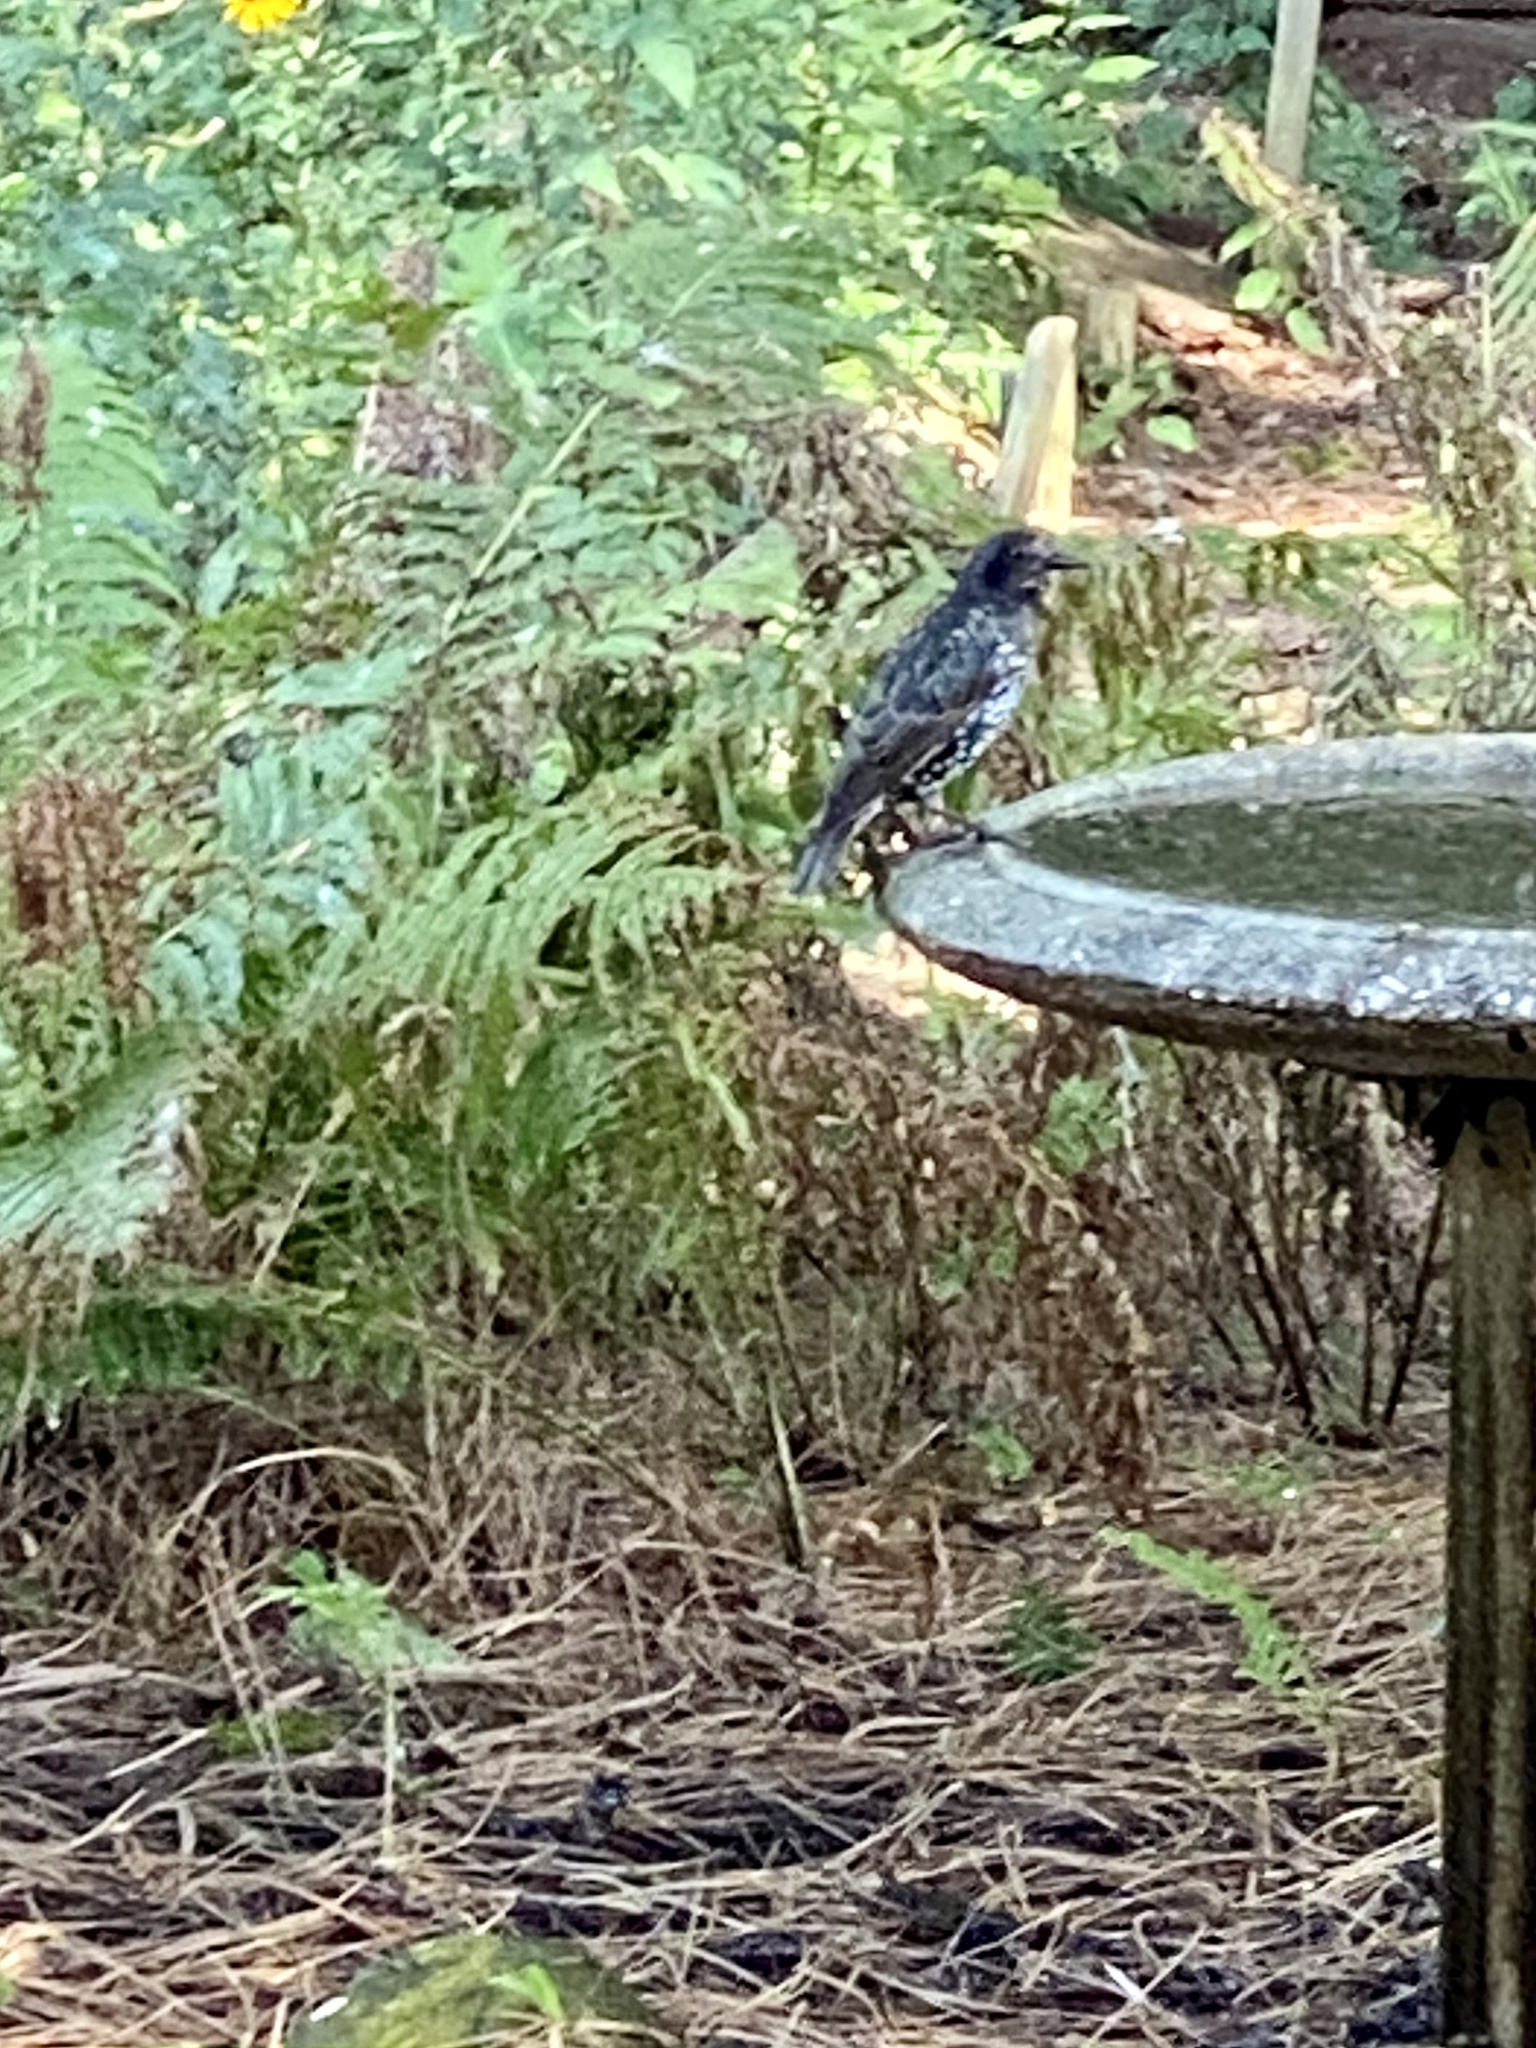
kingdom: Animalia
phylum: Chordata
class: Aves
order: Passeriformes
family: Sturnidae
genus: Sturnus
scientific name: Sturnus vulgaris
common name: Common starling
